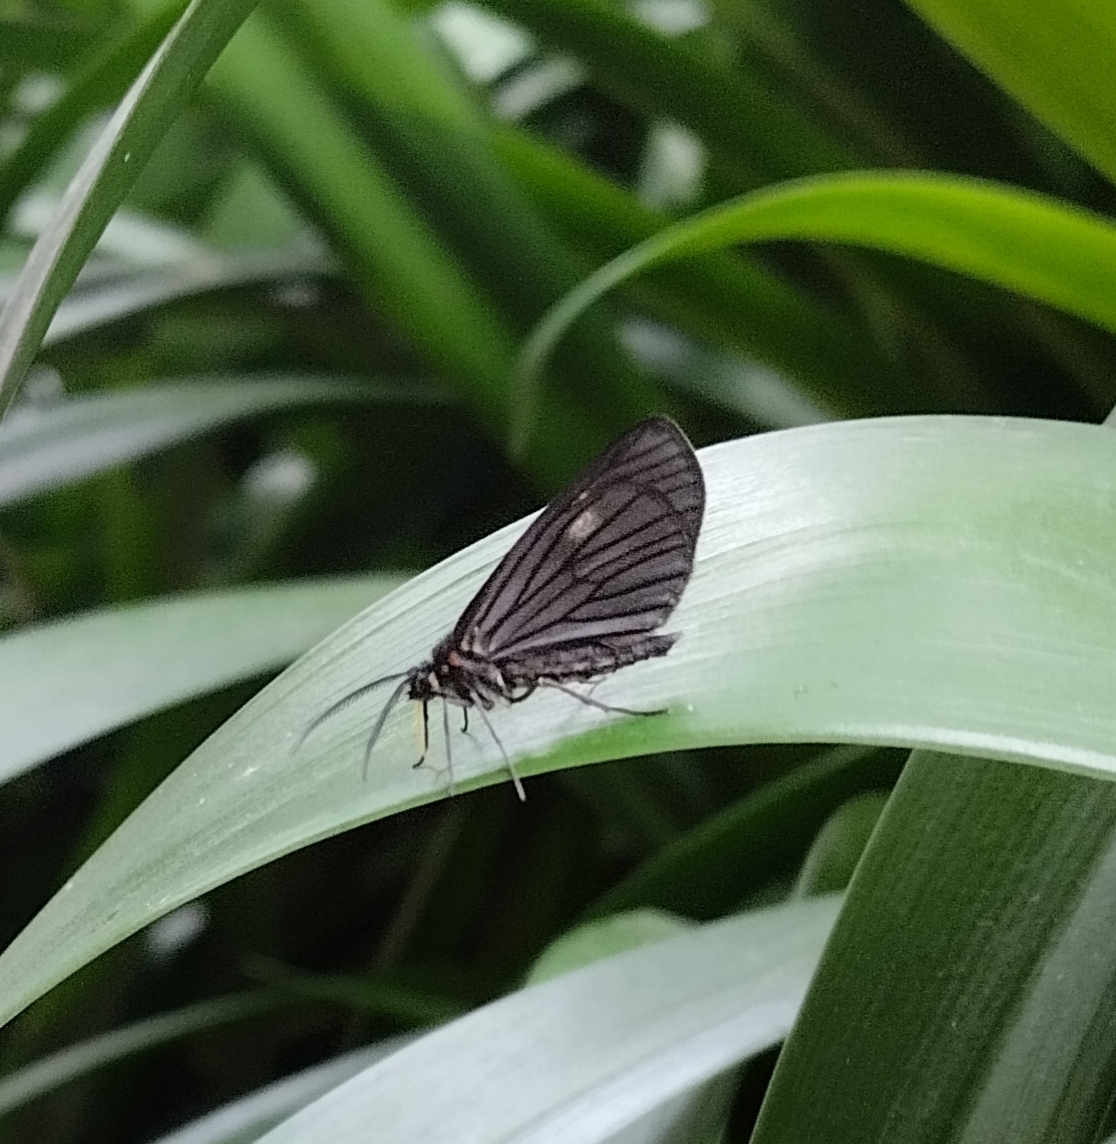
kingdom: Animalia
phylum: Arthropoda
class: Insecta
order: Lepidoptera
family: Geometridae
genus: Sangalopsis
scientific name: Sangalopsis ficifera
